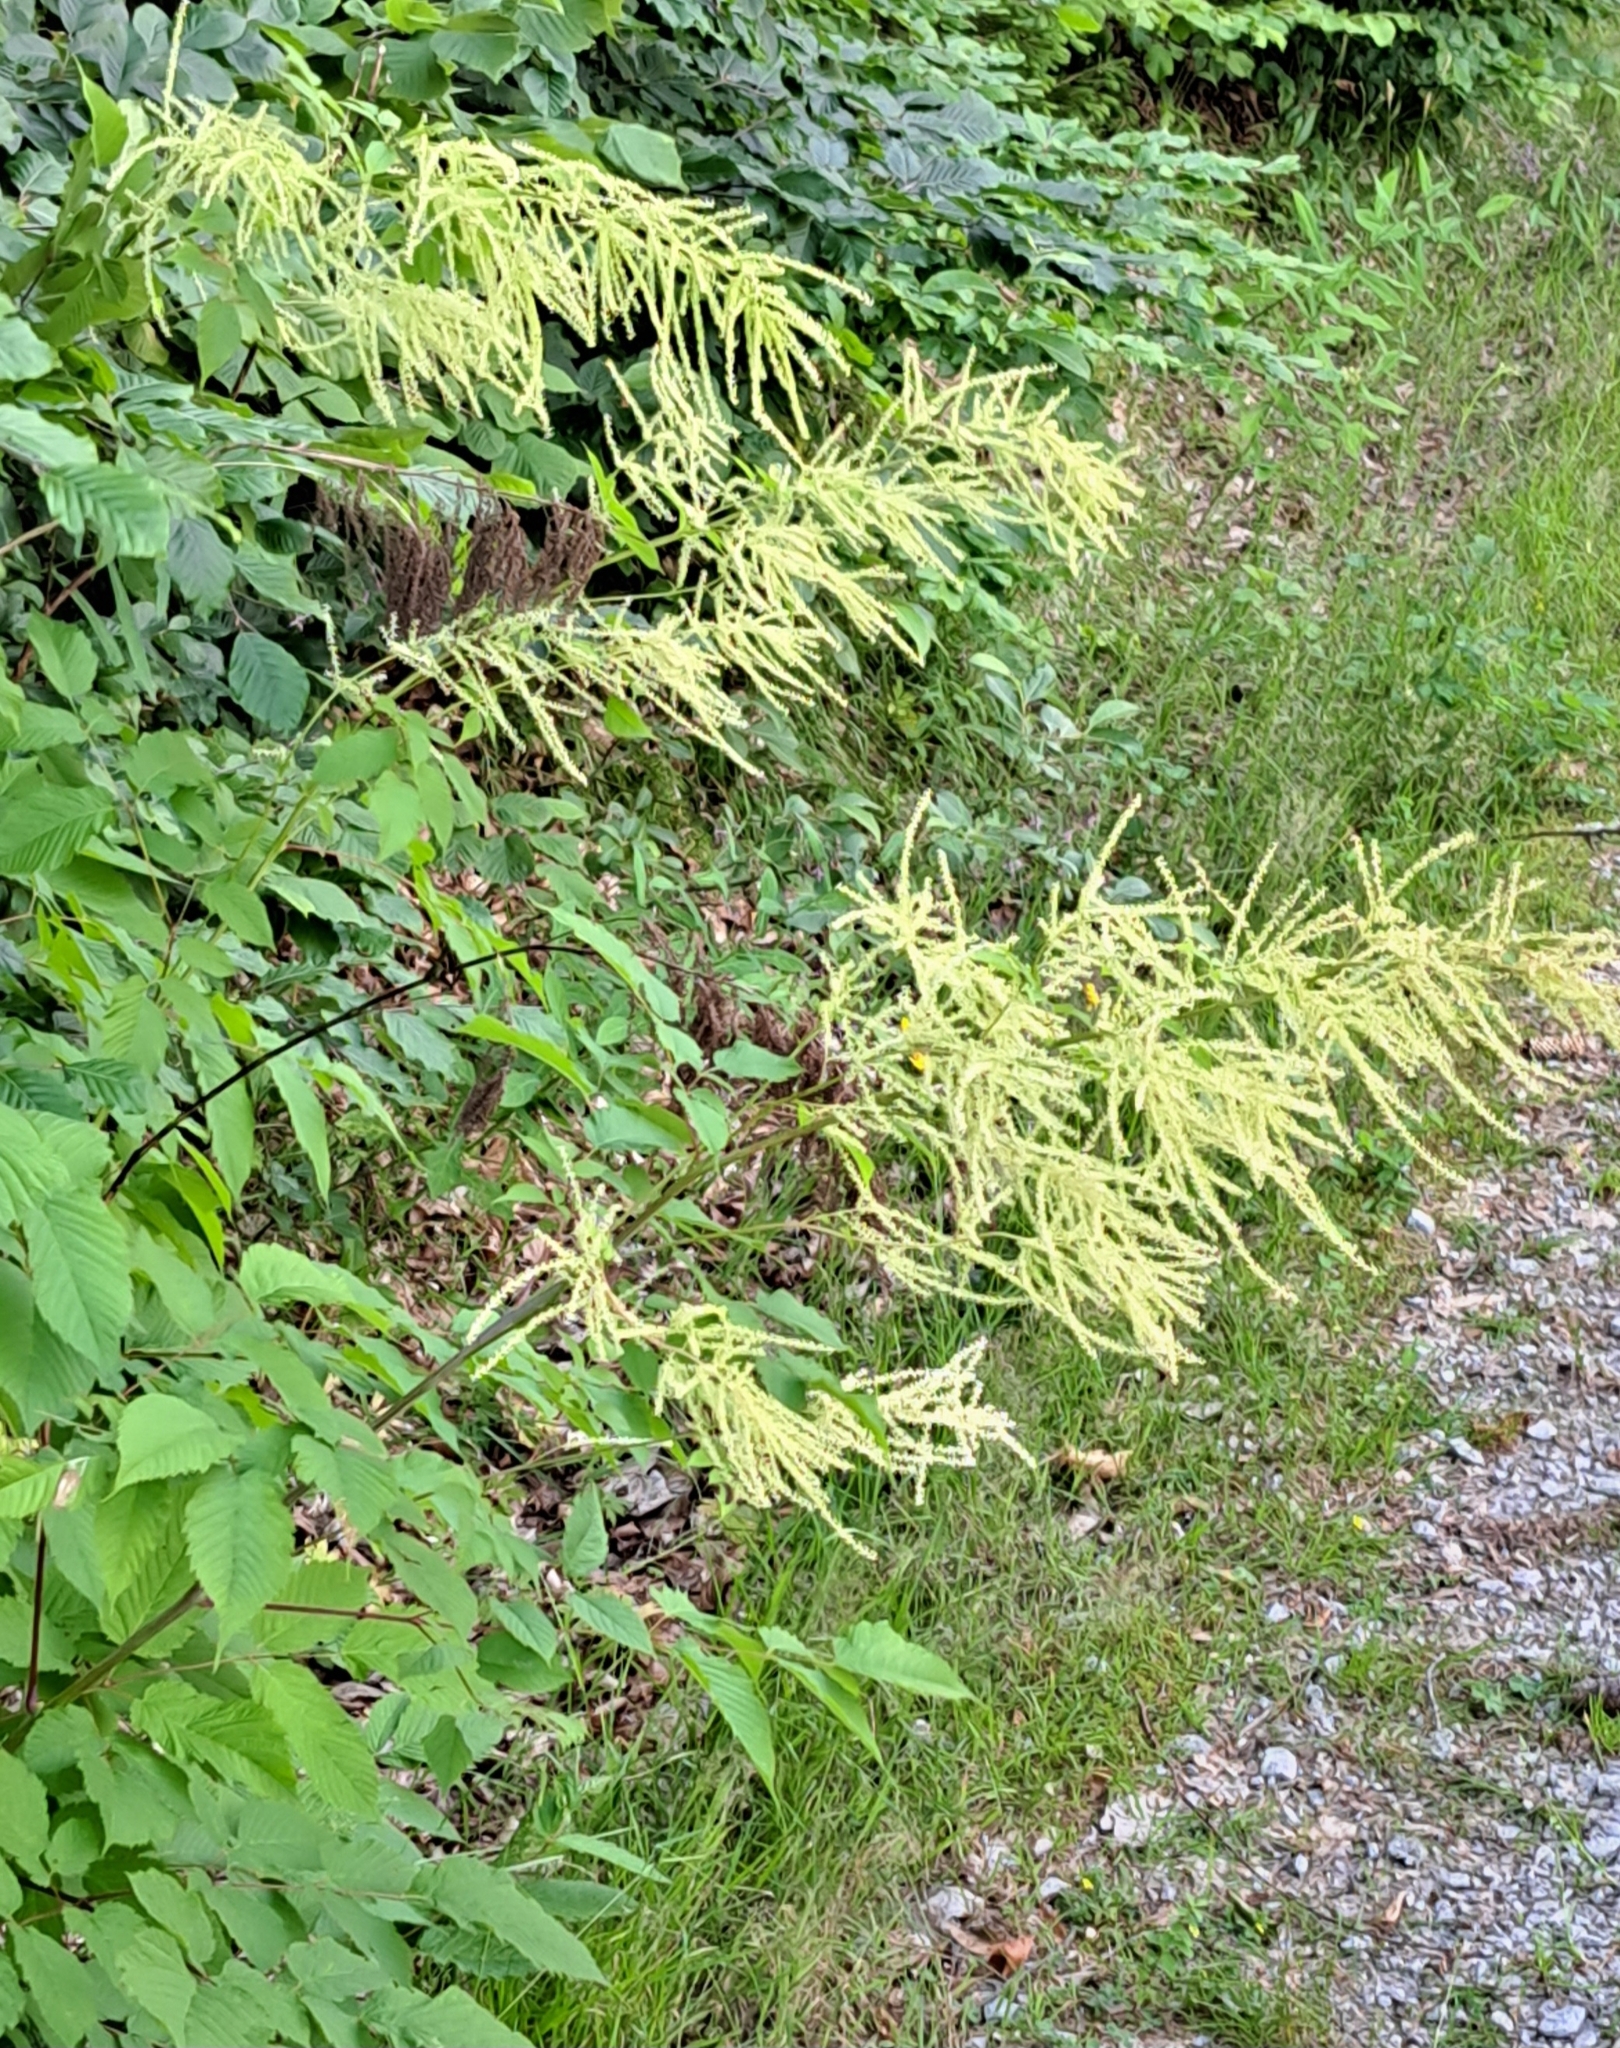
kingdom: Plantae
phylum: Tracheophyta
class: Magnoliopsida
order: Rosales
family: Rosaceae
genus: Aruncus
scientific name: Aruncus dioicus
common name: Buck's-beard
